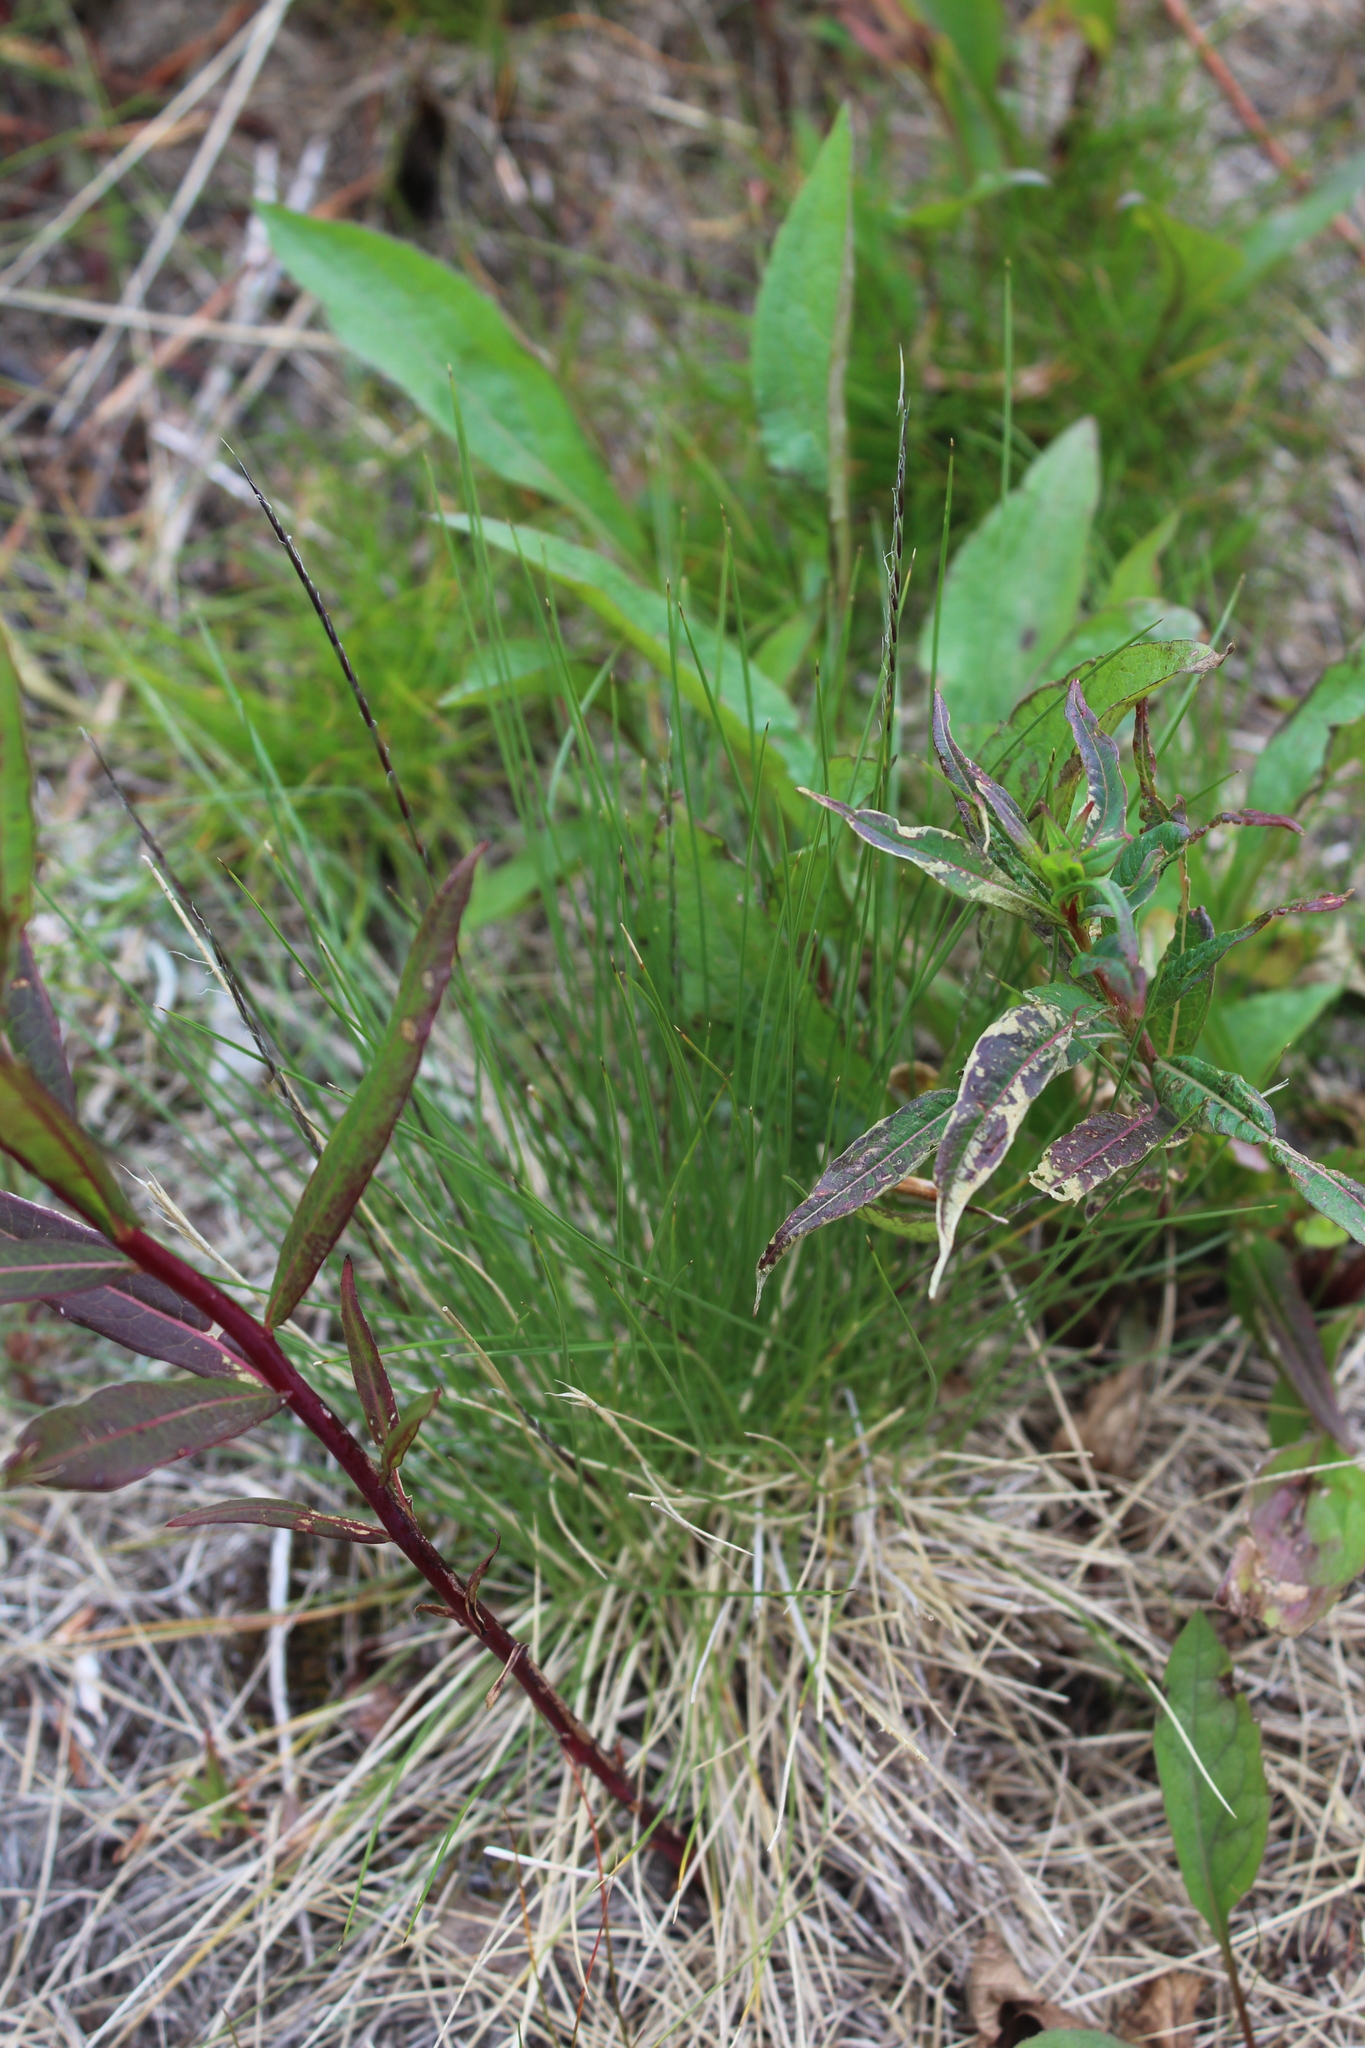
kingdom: Plantae
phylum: Tracheophyta
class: Liliopsida
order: Poales
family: Poaceae
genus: Nardus
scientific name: Nardus stricta
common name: Mat-grass
